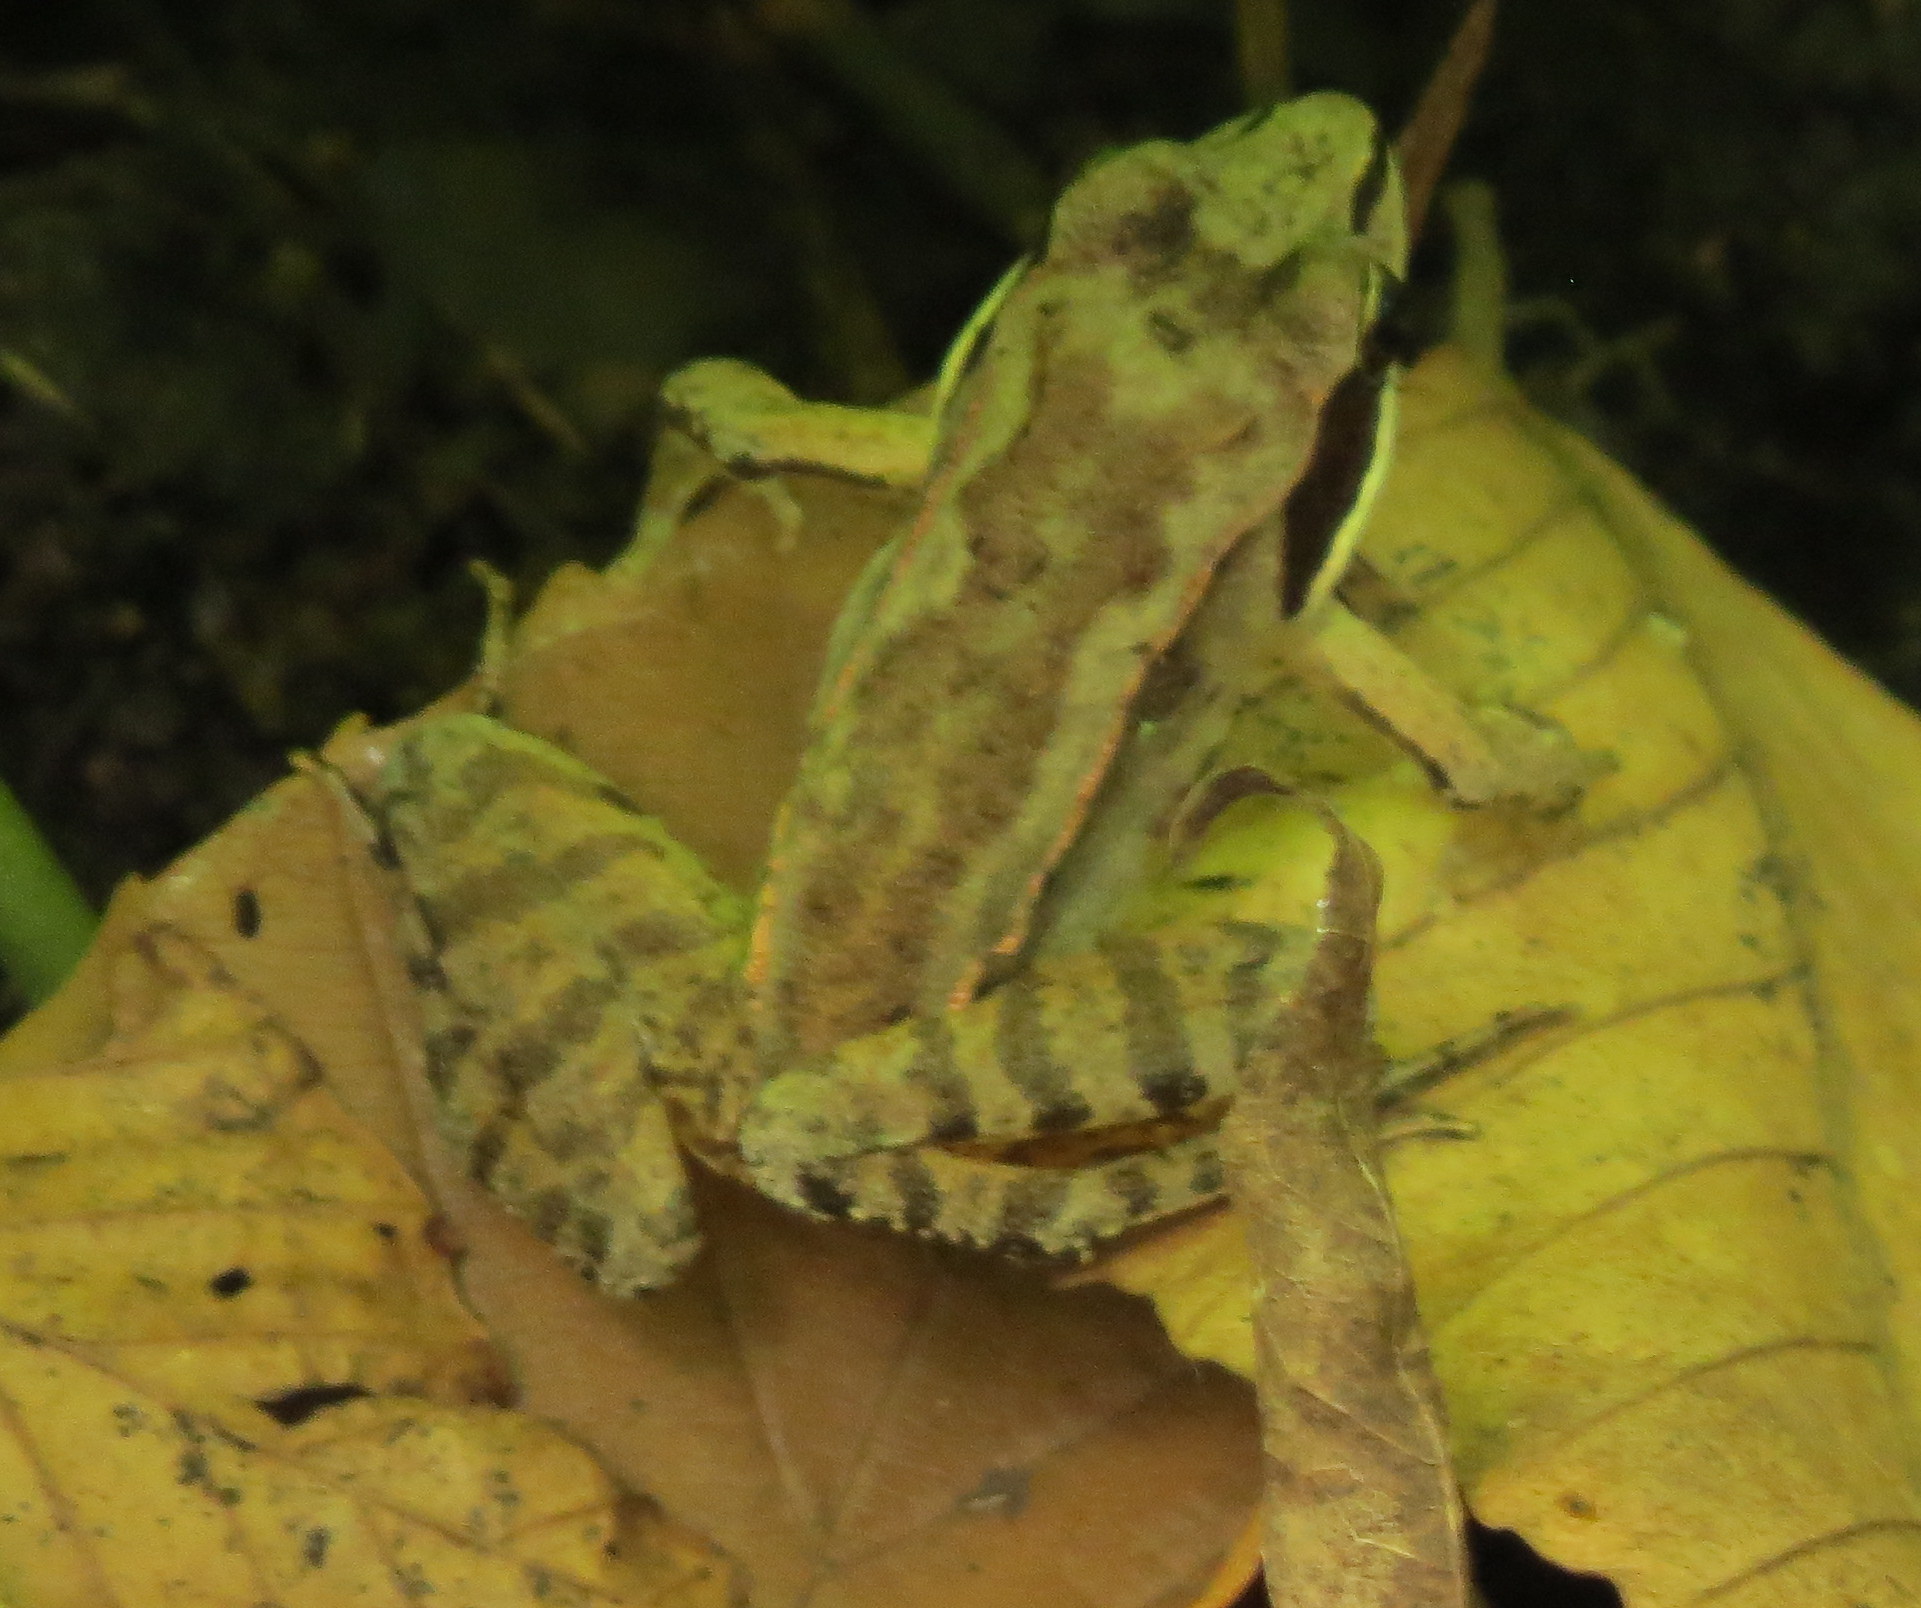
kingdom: Animalia
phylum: Chordata
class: Amphibia
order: Anura
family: Ranidae
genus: Lithobates
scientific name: Lithobates sylvaticus
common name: Wood frog
